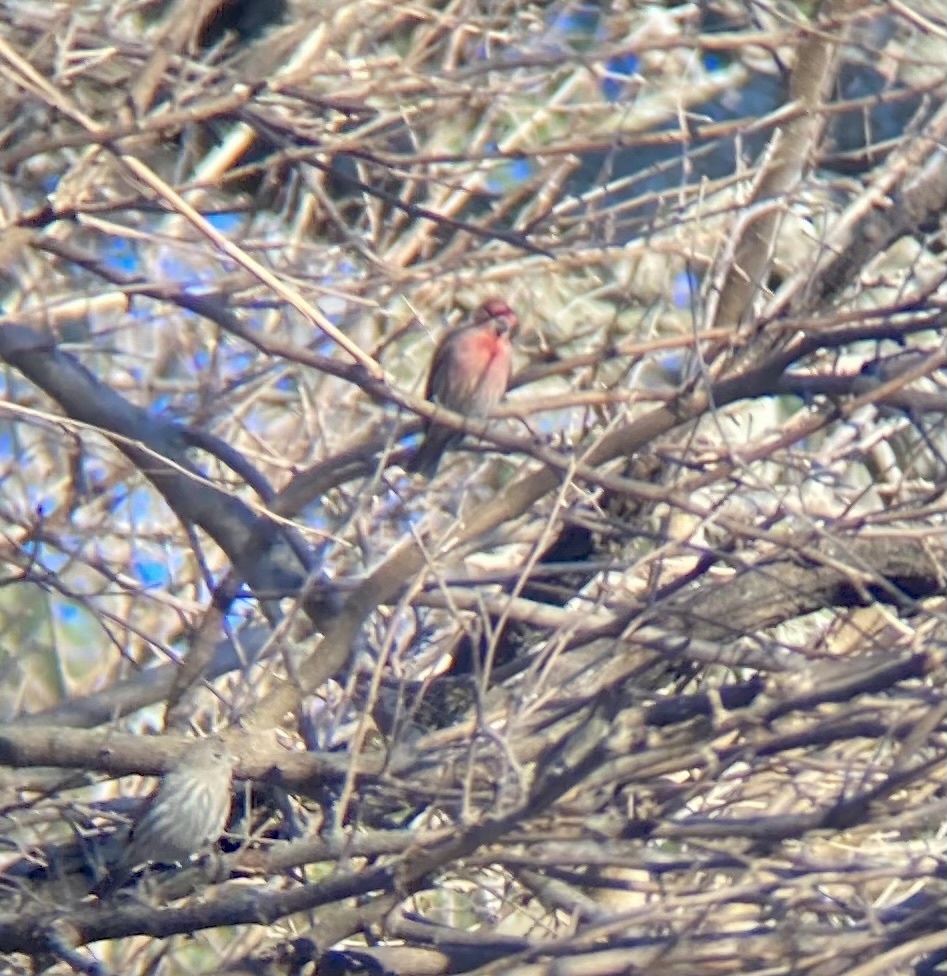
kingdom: Animalia
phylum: Chordata
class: Aves
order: Passeriformes
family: Fringillidae
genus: Haemorhous
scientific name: Haemorhous mexicanus
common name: House finch
